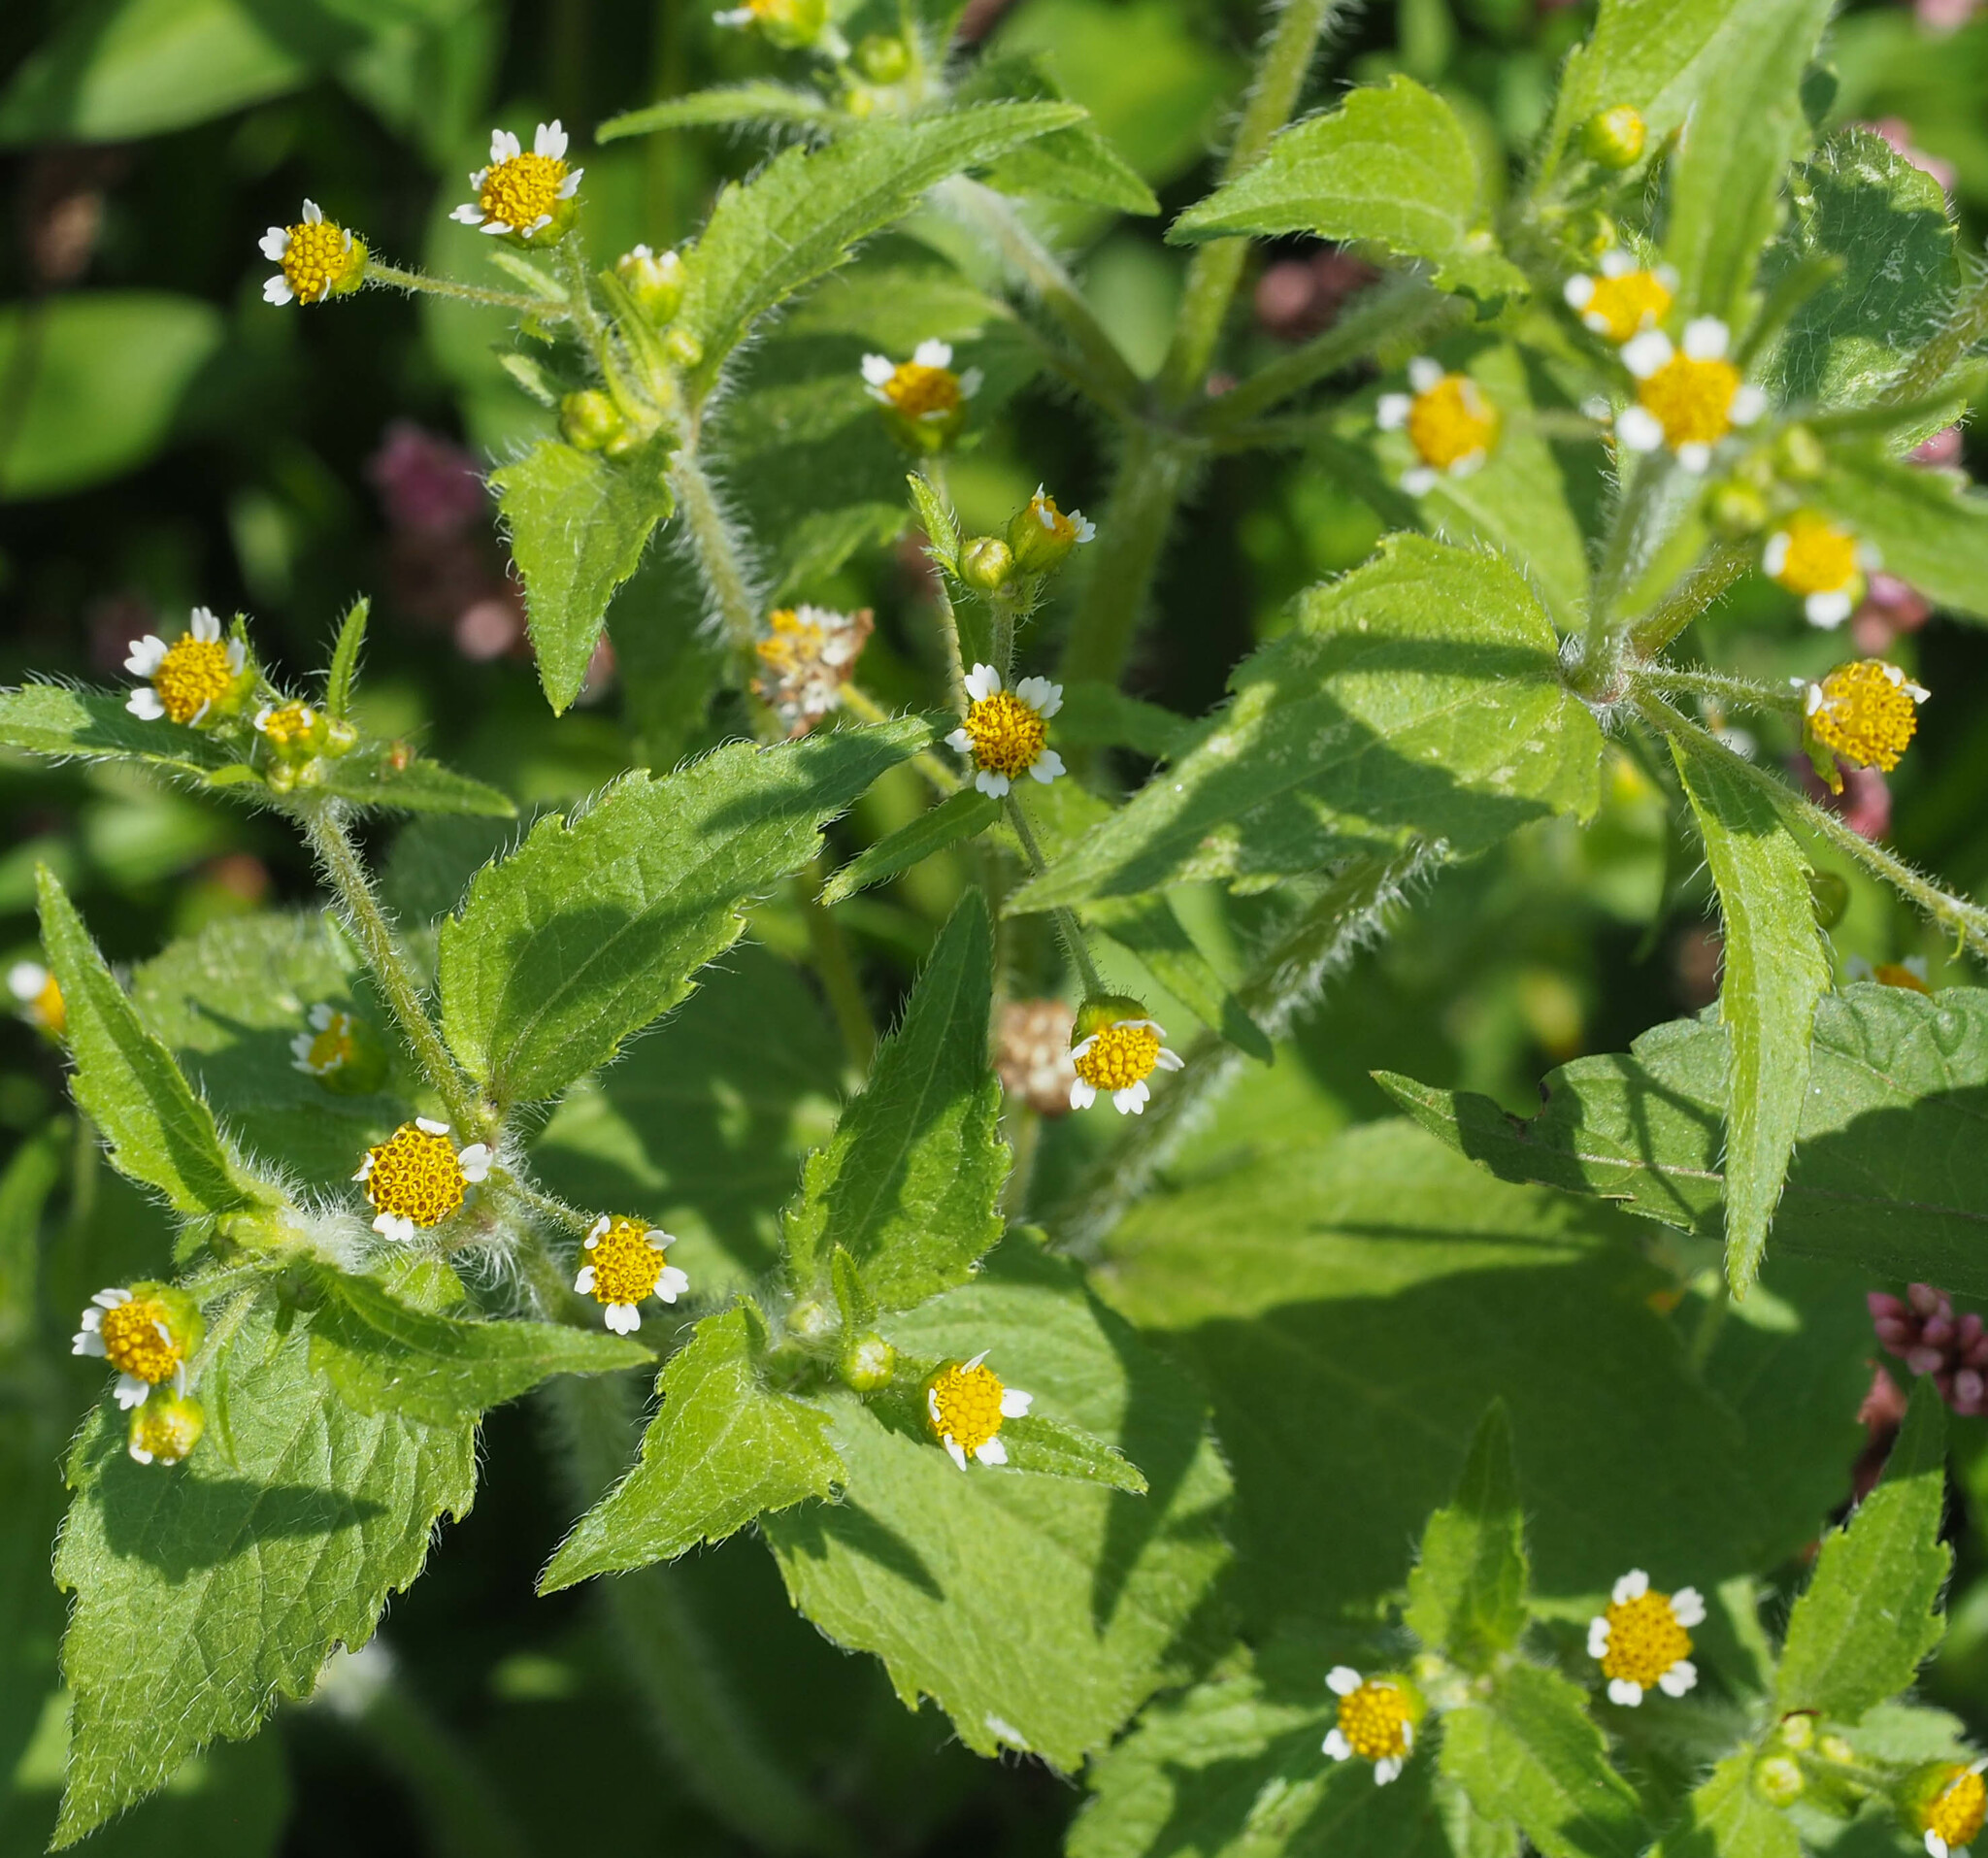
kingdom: Plantae
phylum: Tracheophyta
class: Magnoliopsida
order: Asterales
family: Asteraceae
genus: Galinsoga
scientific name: Galinsoga quadriradiata
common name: Shaggy soldier
